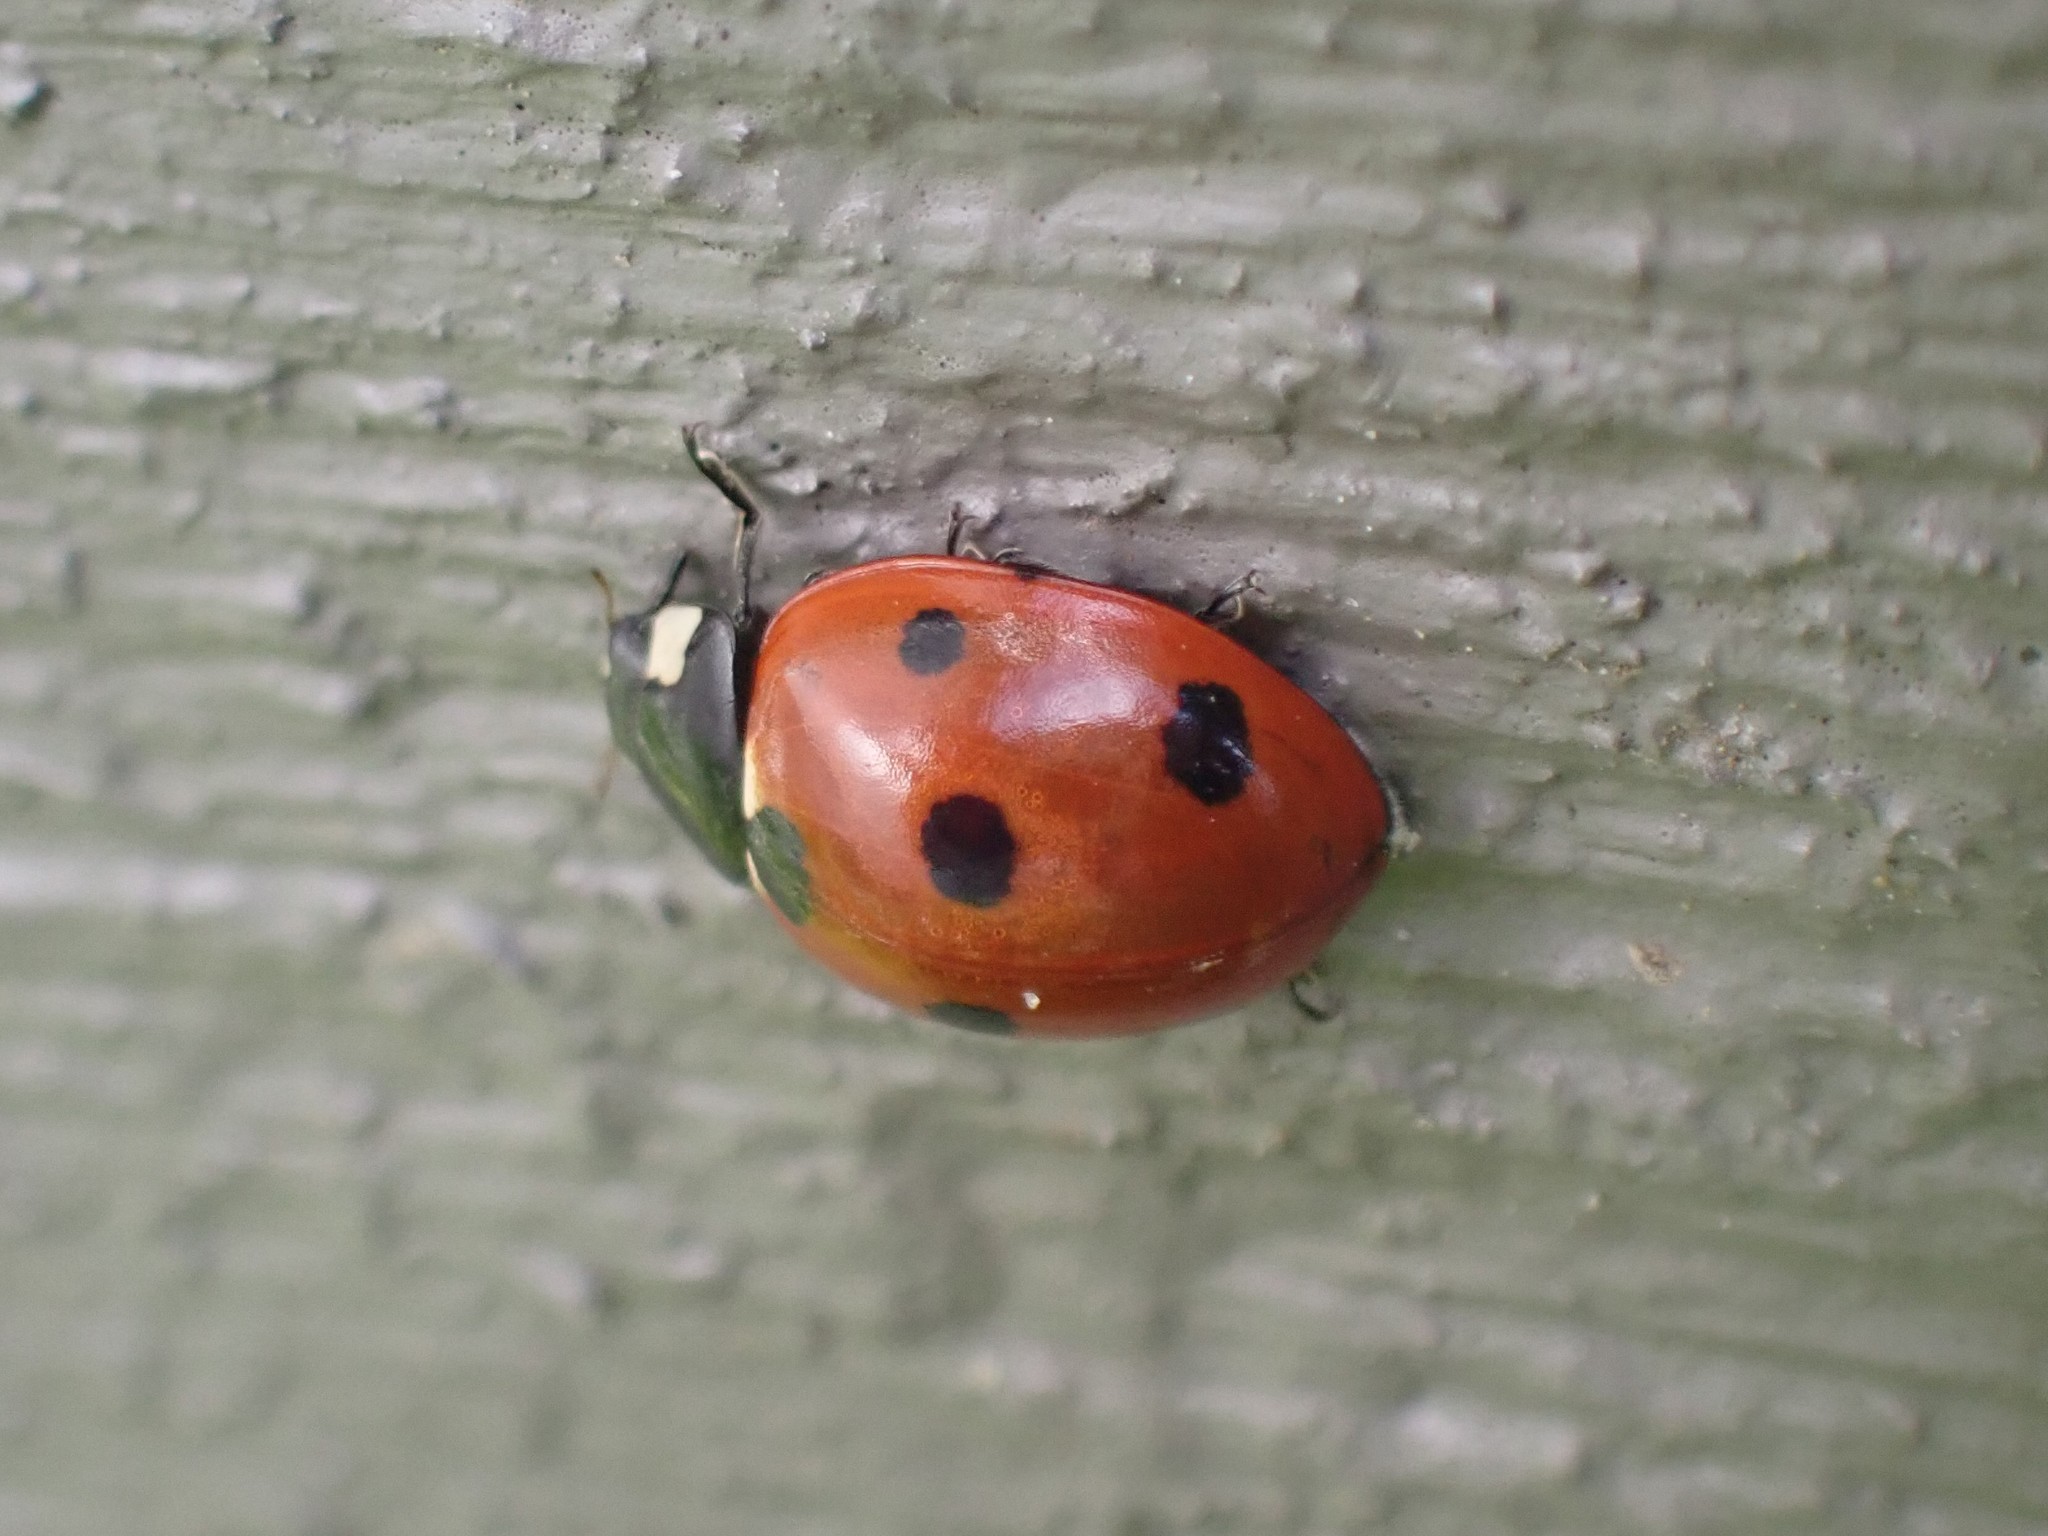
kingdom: Animalia
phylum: Arthropoda
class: Insecta
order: Coleoptera
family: Coccinellidae
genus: Coccinella
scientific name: Coccinella septempunctata
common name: Sevenspotted lady beetle
